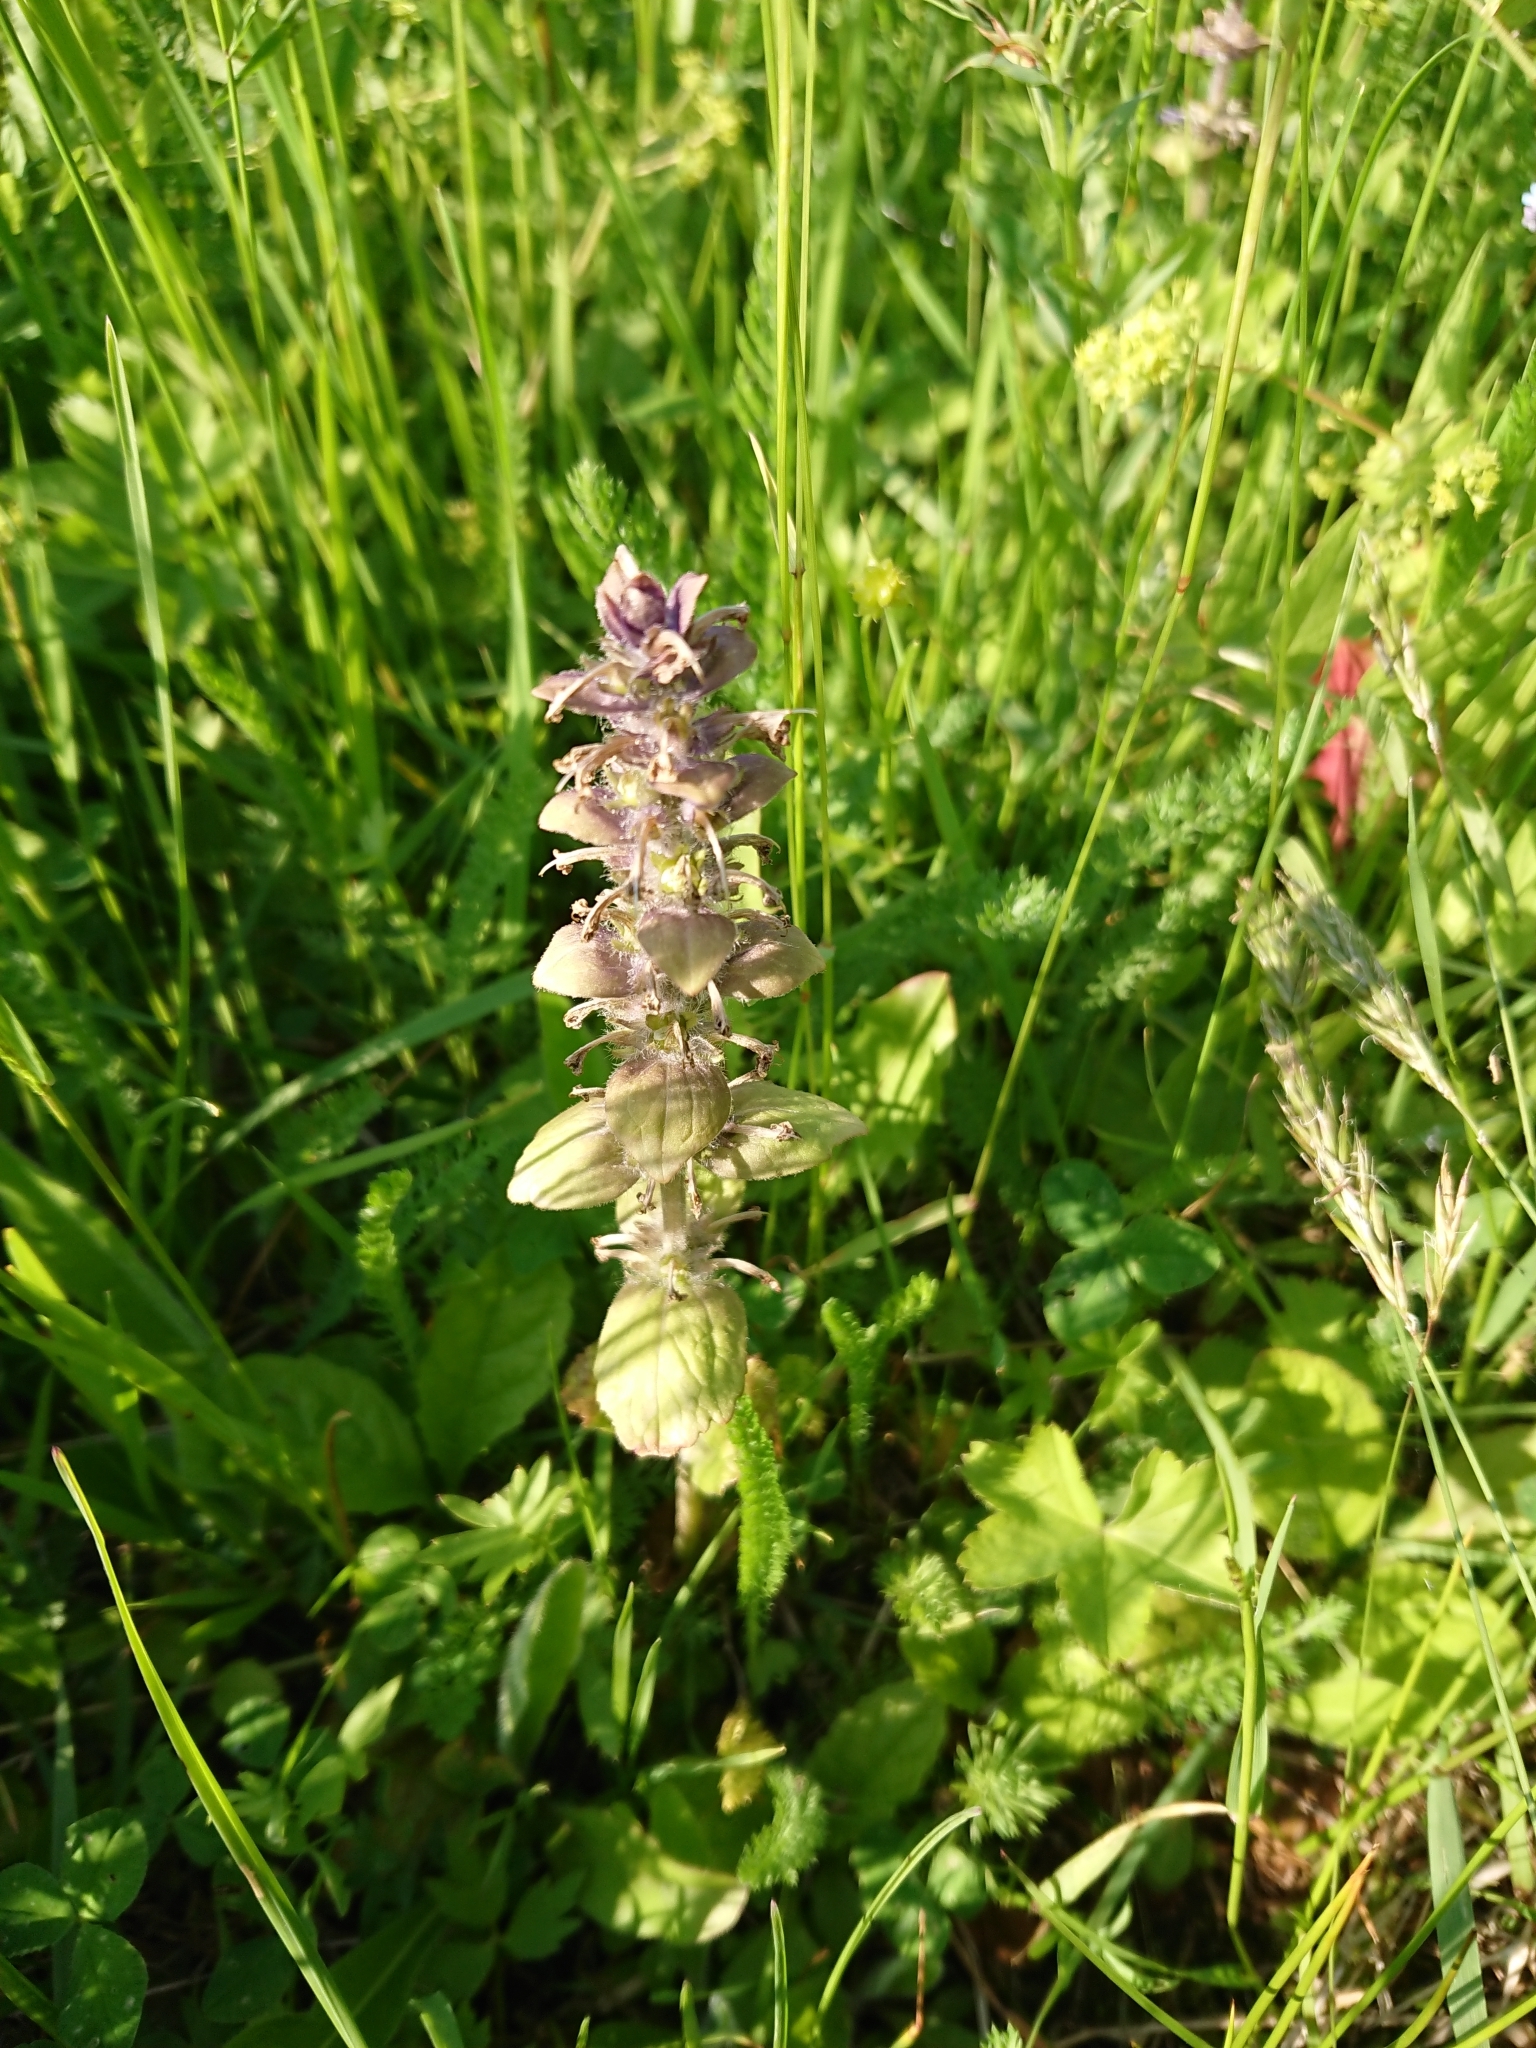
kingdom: Plantae
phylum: Tracheophyta
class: Magnoliopsida
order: Lamiales
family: Lamiaceae
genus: Ajuga
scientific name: Ajuga reptans
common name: Bugle
